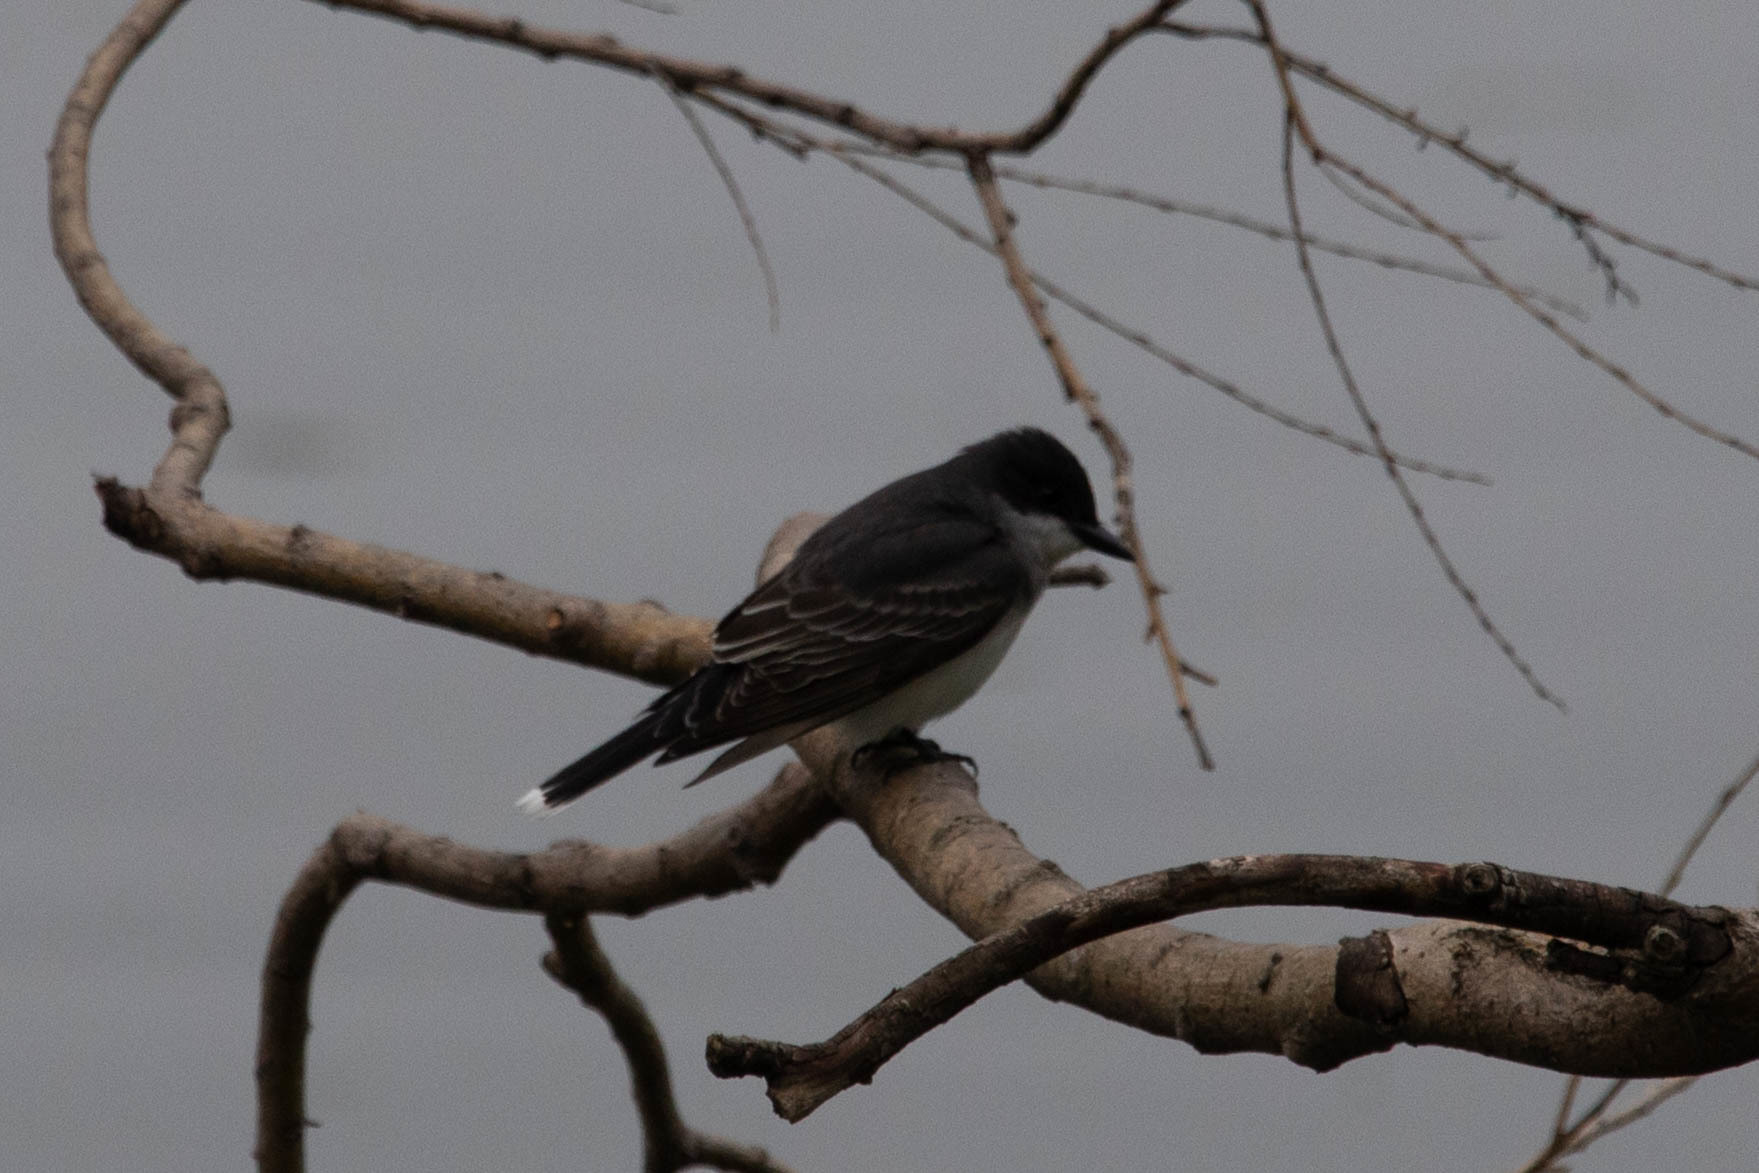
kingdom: Animalia
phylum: Chordata
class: Aves
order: Passeriformes
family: Tyrannidae
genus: Tyrannus
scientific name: Tyrannus tyrannus
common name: Eastern kingbird
